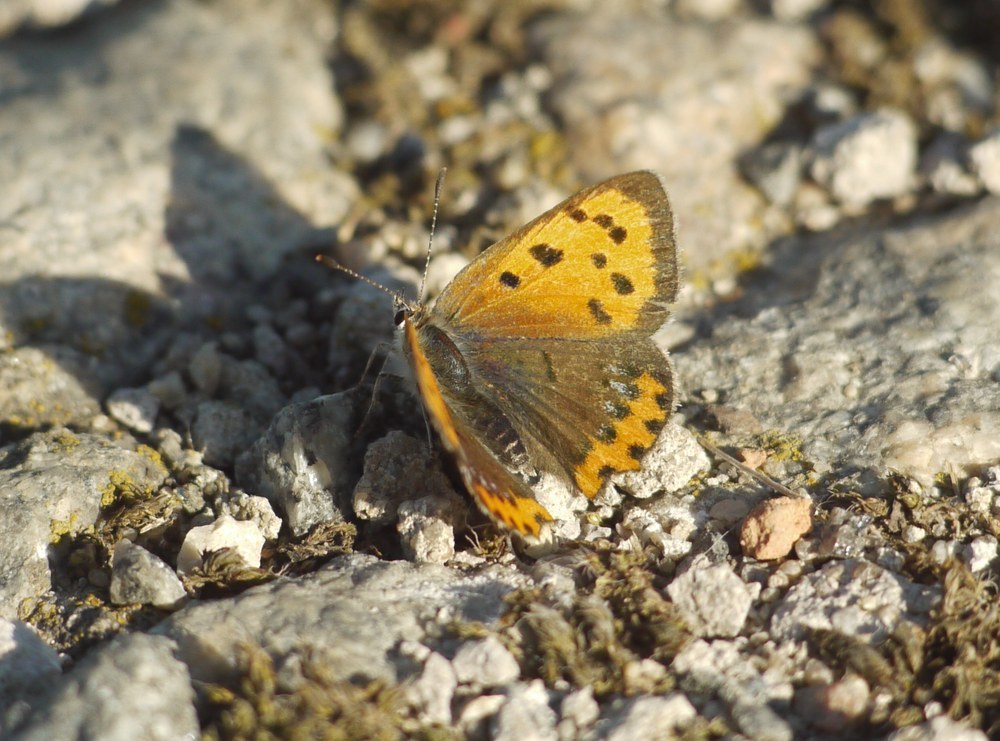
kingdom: Animalia
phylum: Arthropoda
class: Insecta
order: Lepidoptera
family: Lycaenidae
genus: Lycaena
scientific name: Lycaena phlaeas
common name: Small copper
